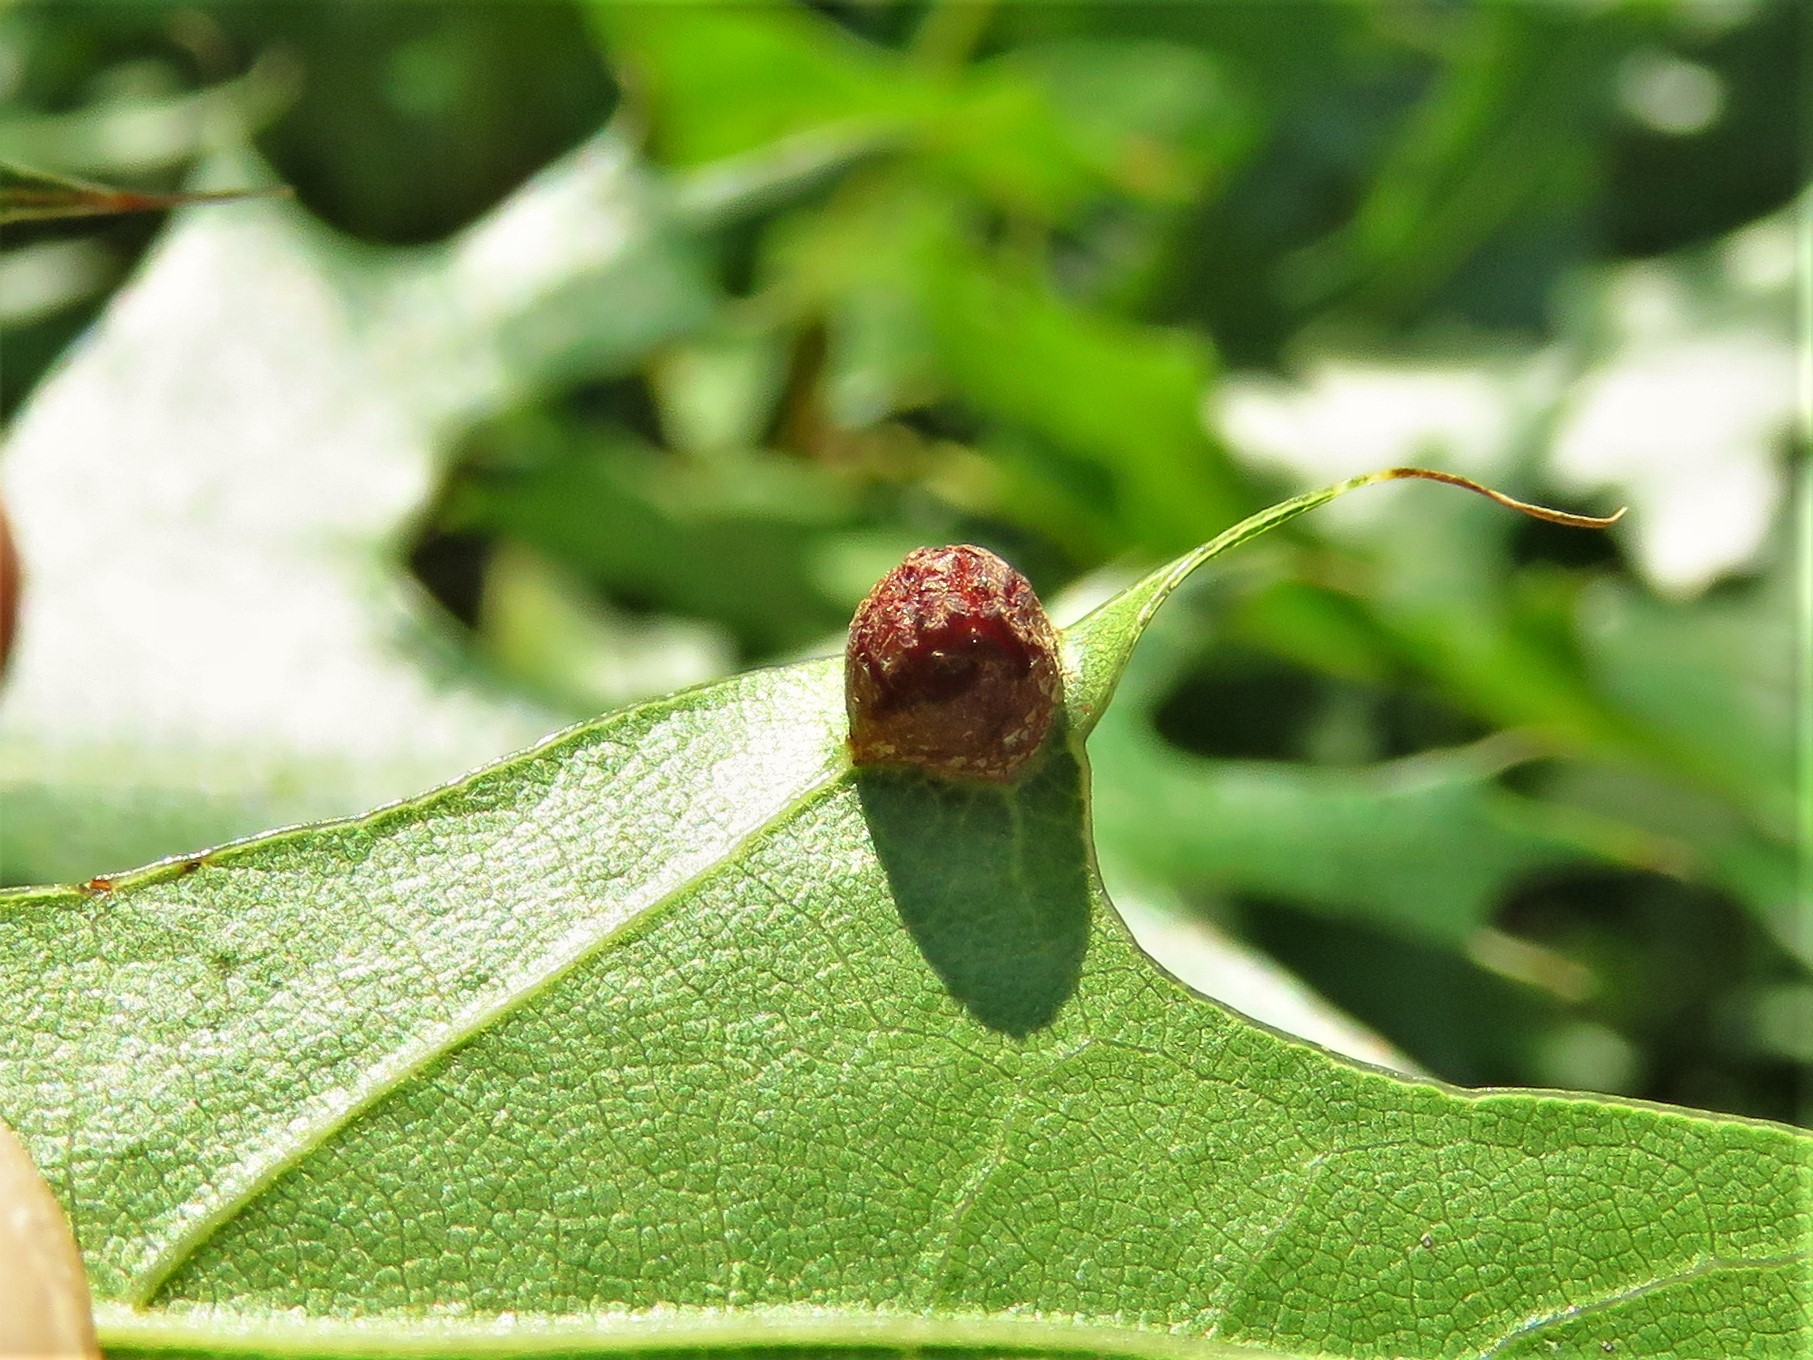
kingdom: Animalia
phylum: Arthropoda
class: Insecta
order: Diptera
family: Cecidomyiidae
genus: Polystepha
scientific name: Polystepha globosa
